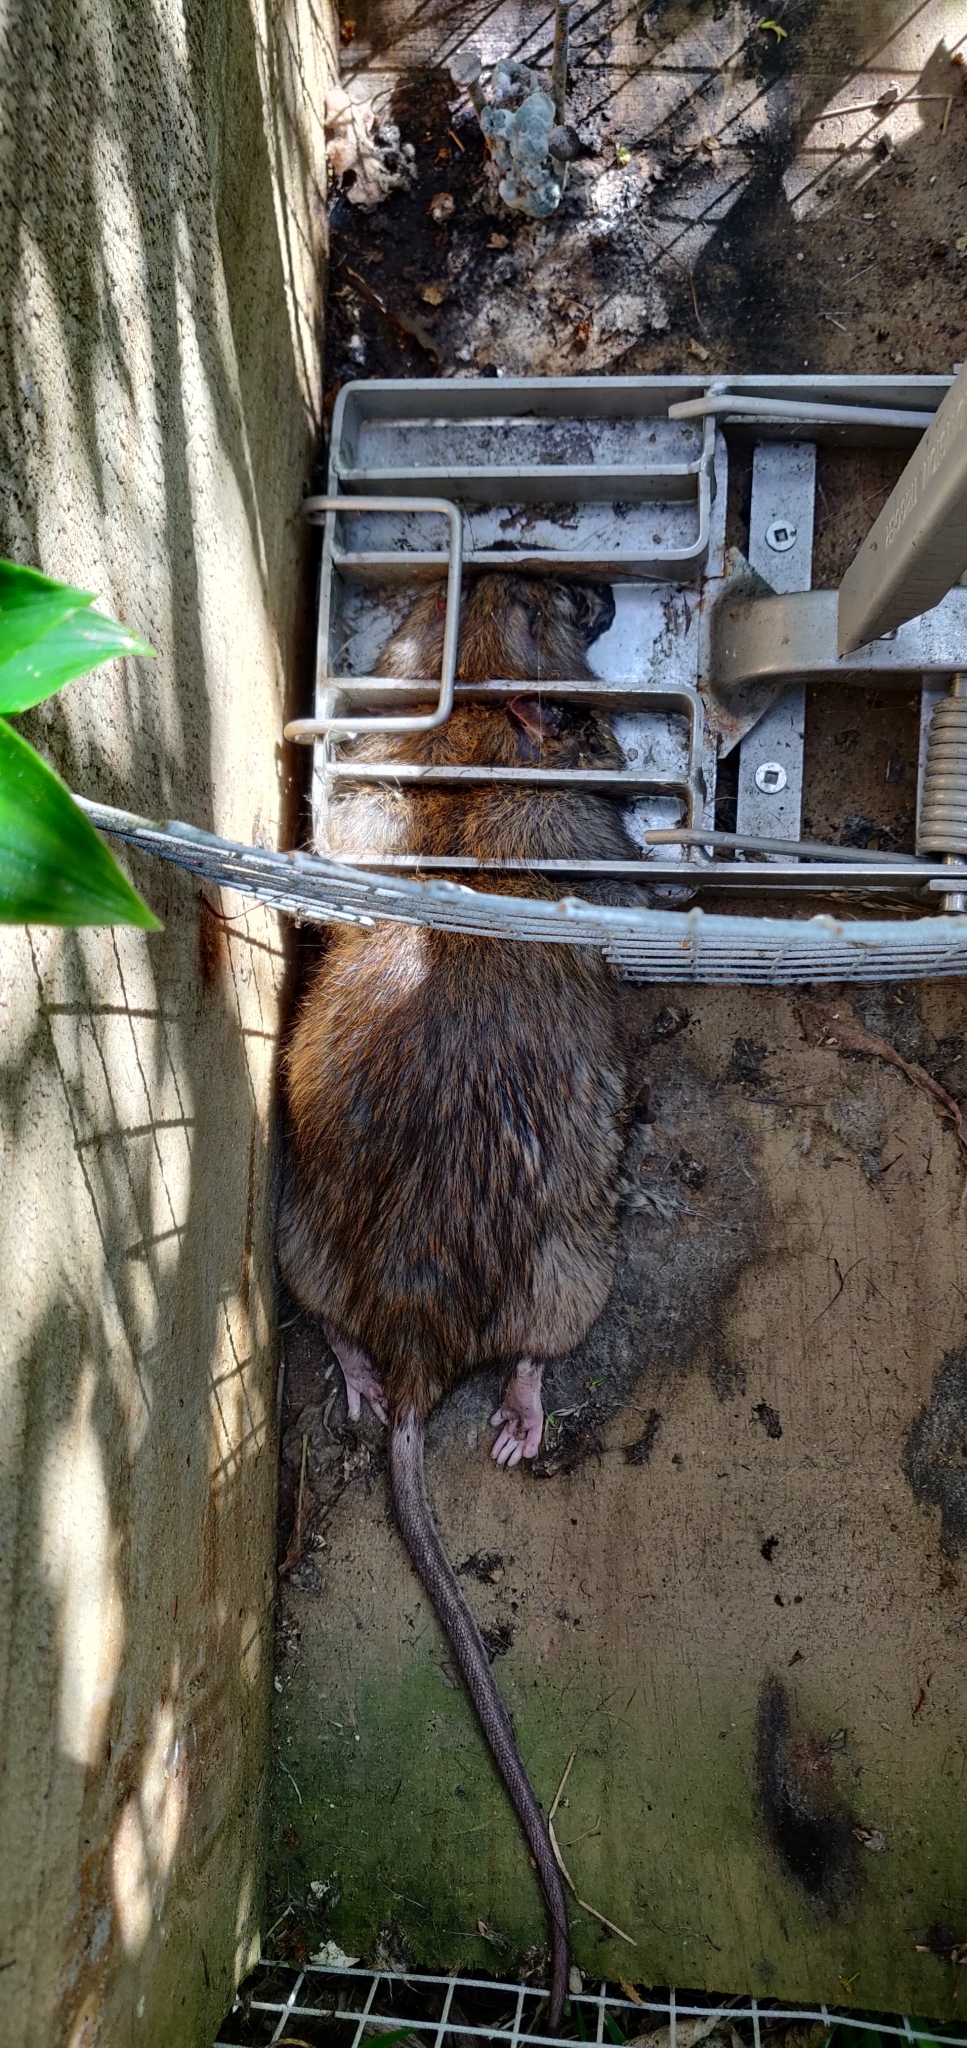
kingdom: Animalia
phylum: Chordata
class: Mammalia
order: Rodentia
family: Muridae
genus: Rattus
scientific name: Rattus norvegicus
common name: Brown rat
